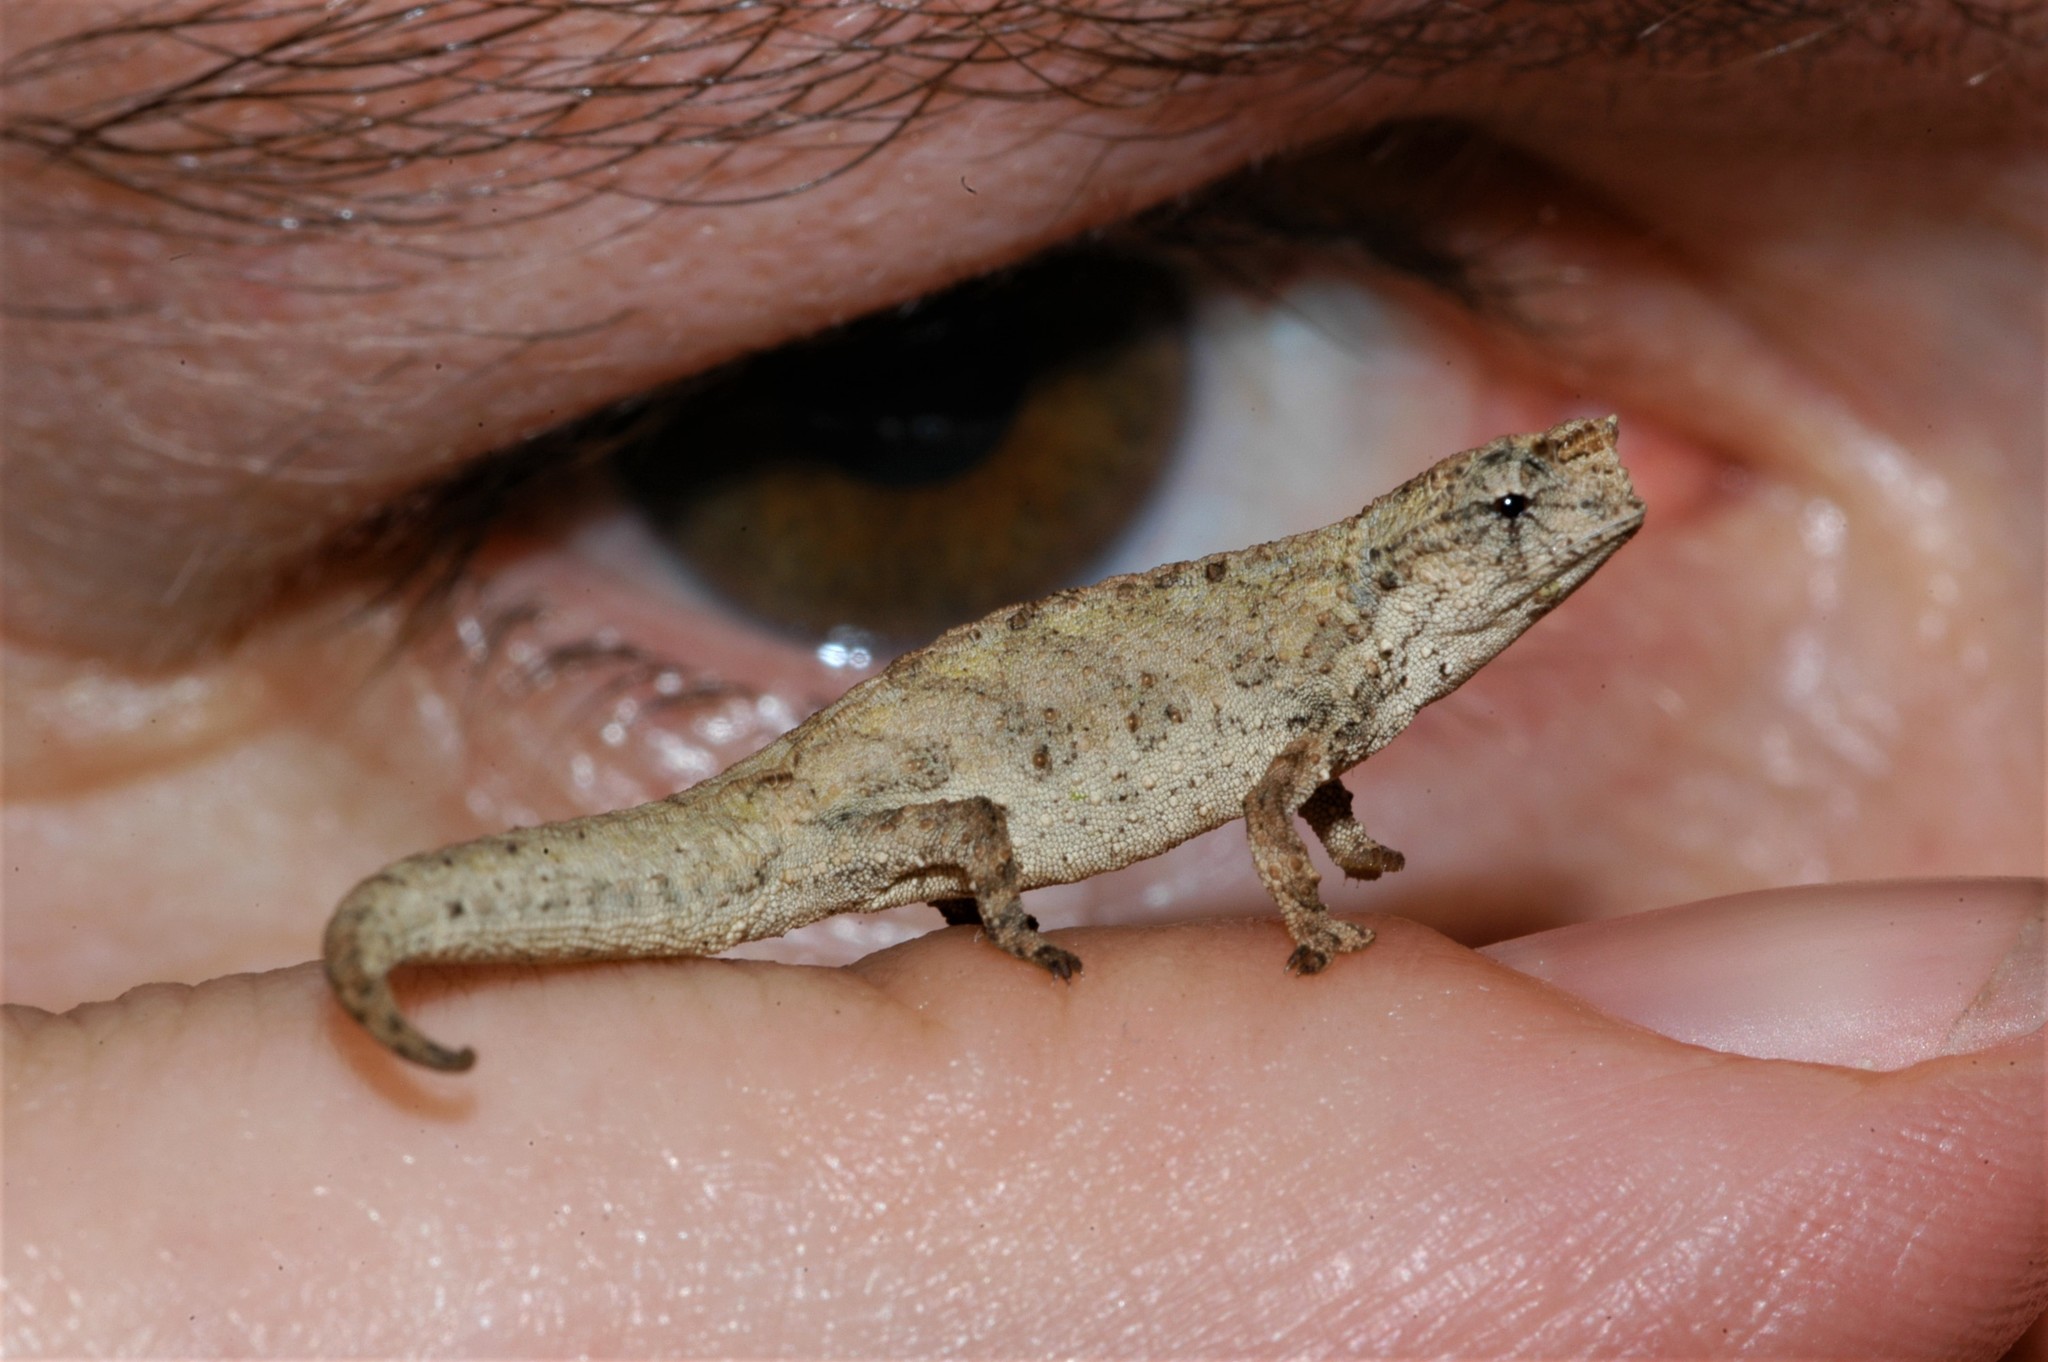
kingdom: Animalia
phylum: Chordata
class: Squamata
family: Chamaeleonidae
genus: Brookesia
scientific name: Brookesia tuberculata
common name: Mount d'ambre leaf chameleon
